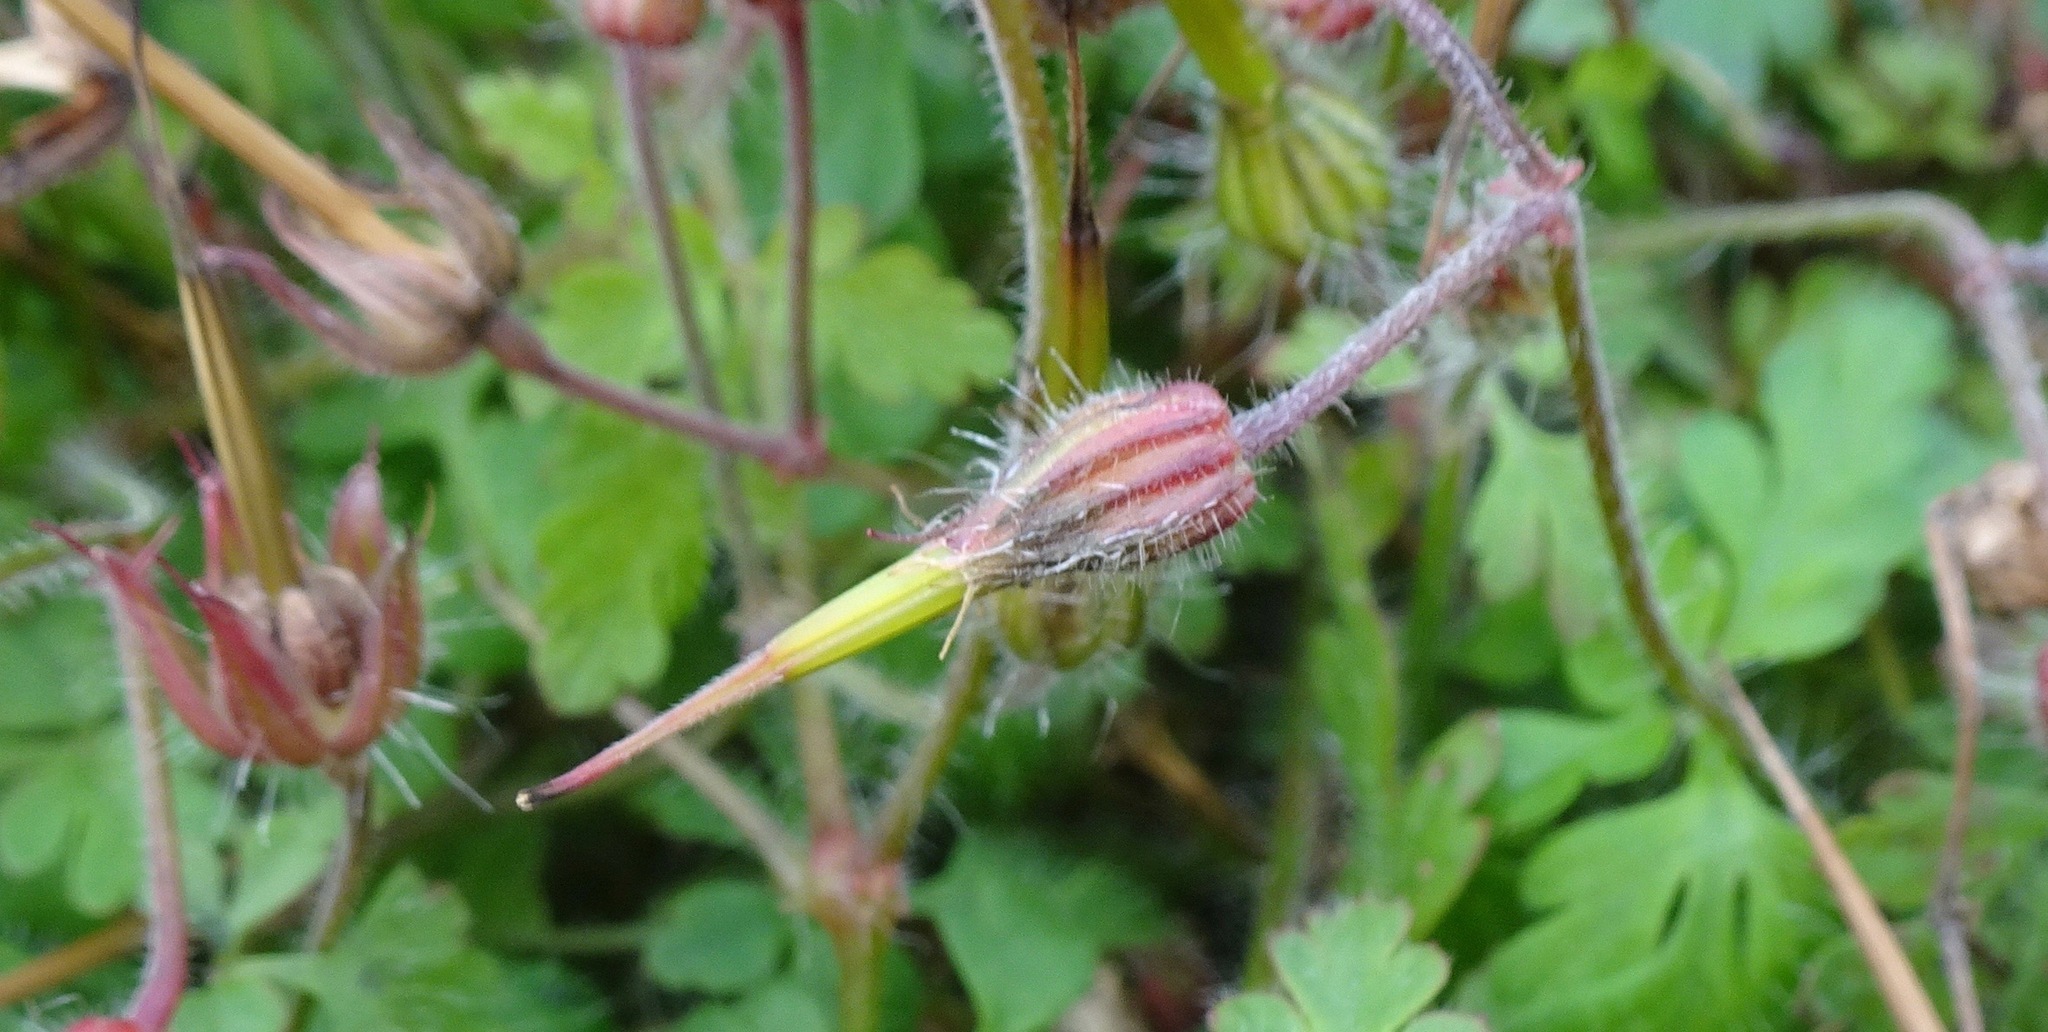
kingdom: Plantae
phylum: Tracheophyta
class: Magnoliopsida
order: Geraniales
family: Geraniaceae
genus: Geranium
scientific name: Geranium robertianum
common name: Herb-robert
